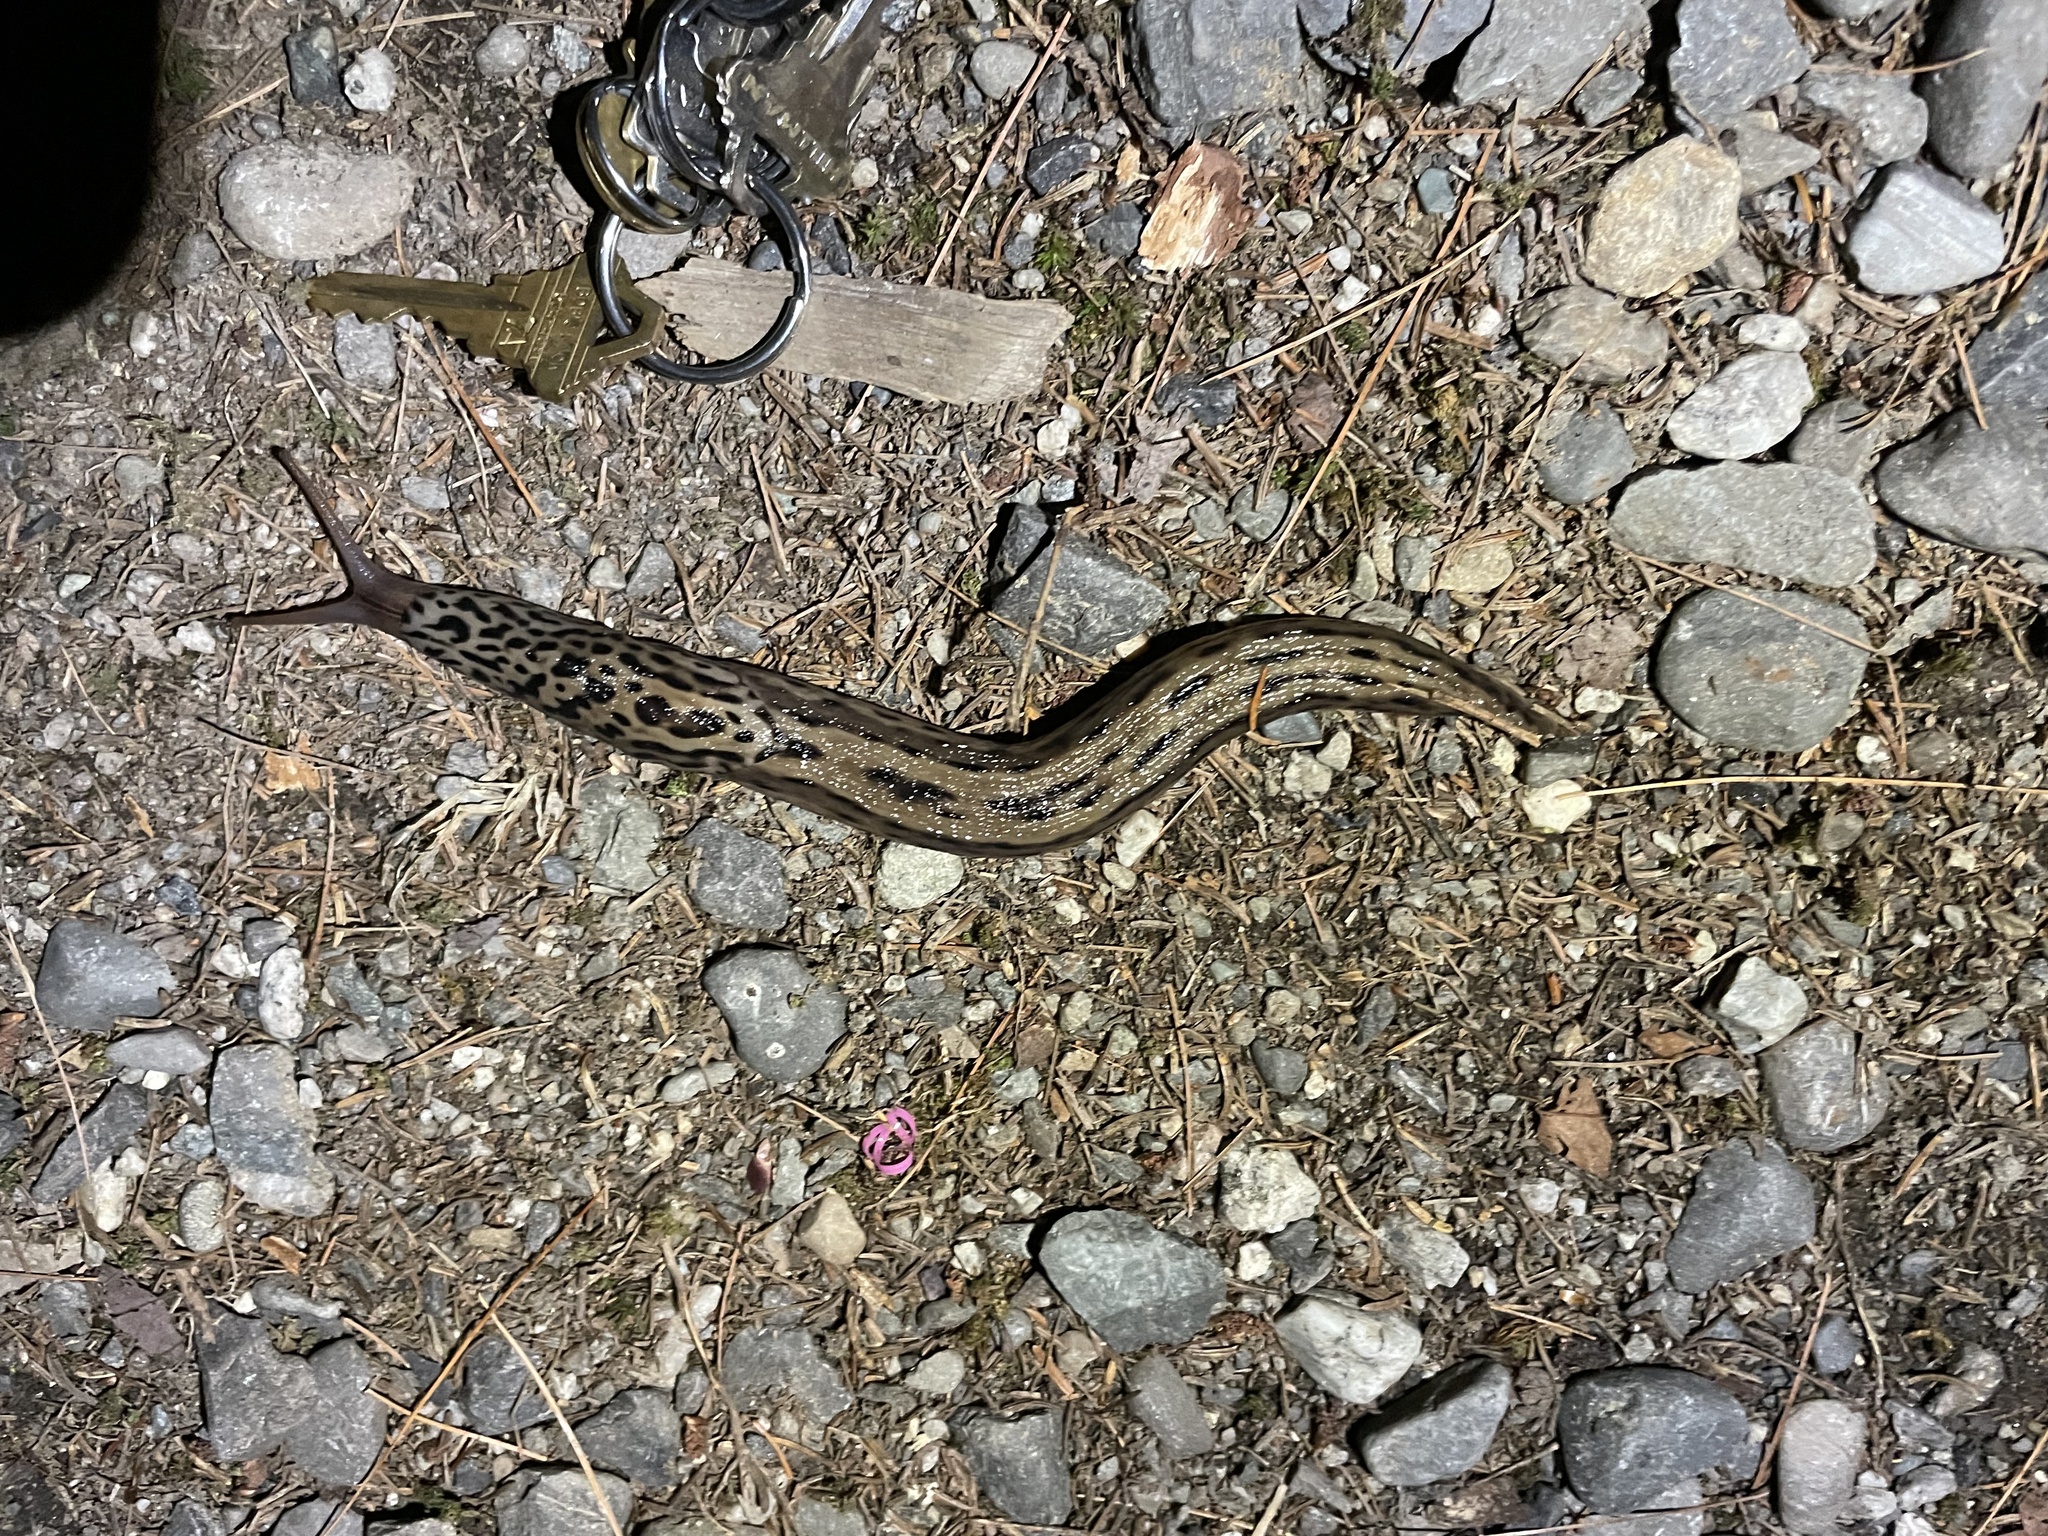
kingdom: Animalia
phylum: Mollusca
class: Gastropoda
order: Stylommatophora
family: Limacidae
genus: Limax
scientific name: Limax maximus
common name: Great grey slug
